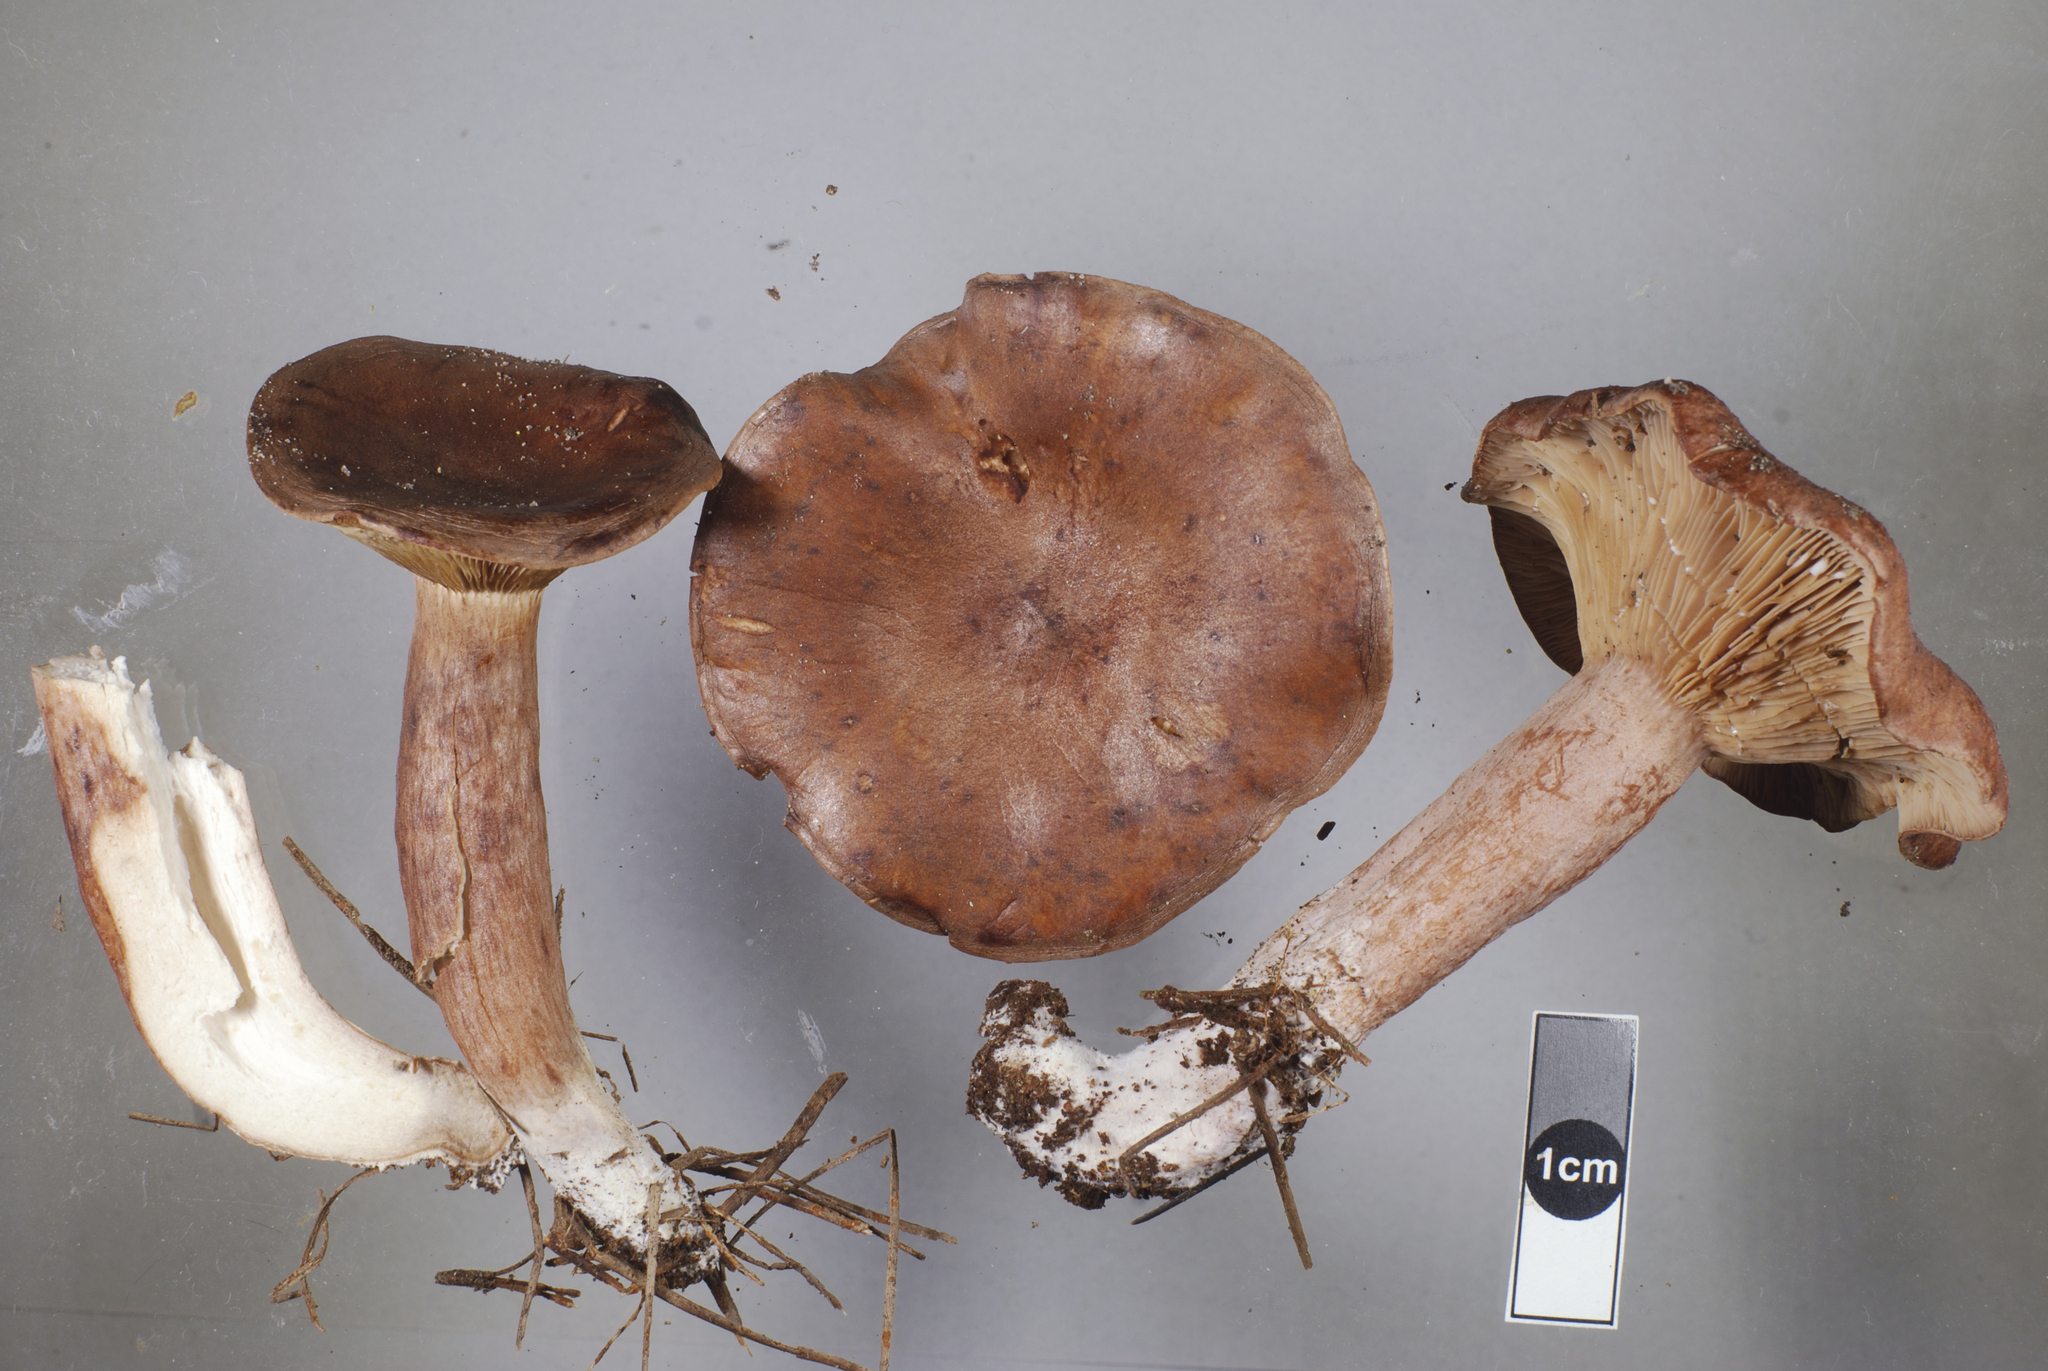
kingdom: Fungi
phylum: Basidiomycota
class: Agaricomycetes
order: Russulales
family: Russulaceae
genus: Lactarius
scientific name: Lactarius rufus
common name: Rufous milk-cap
